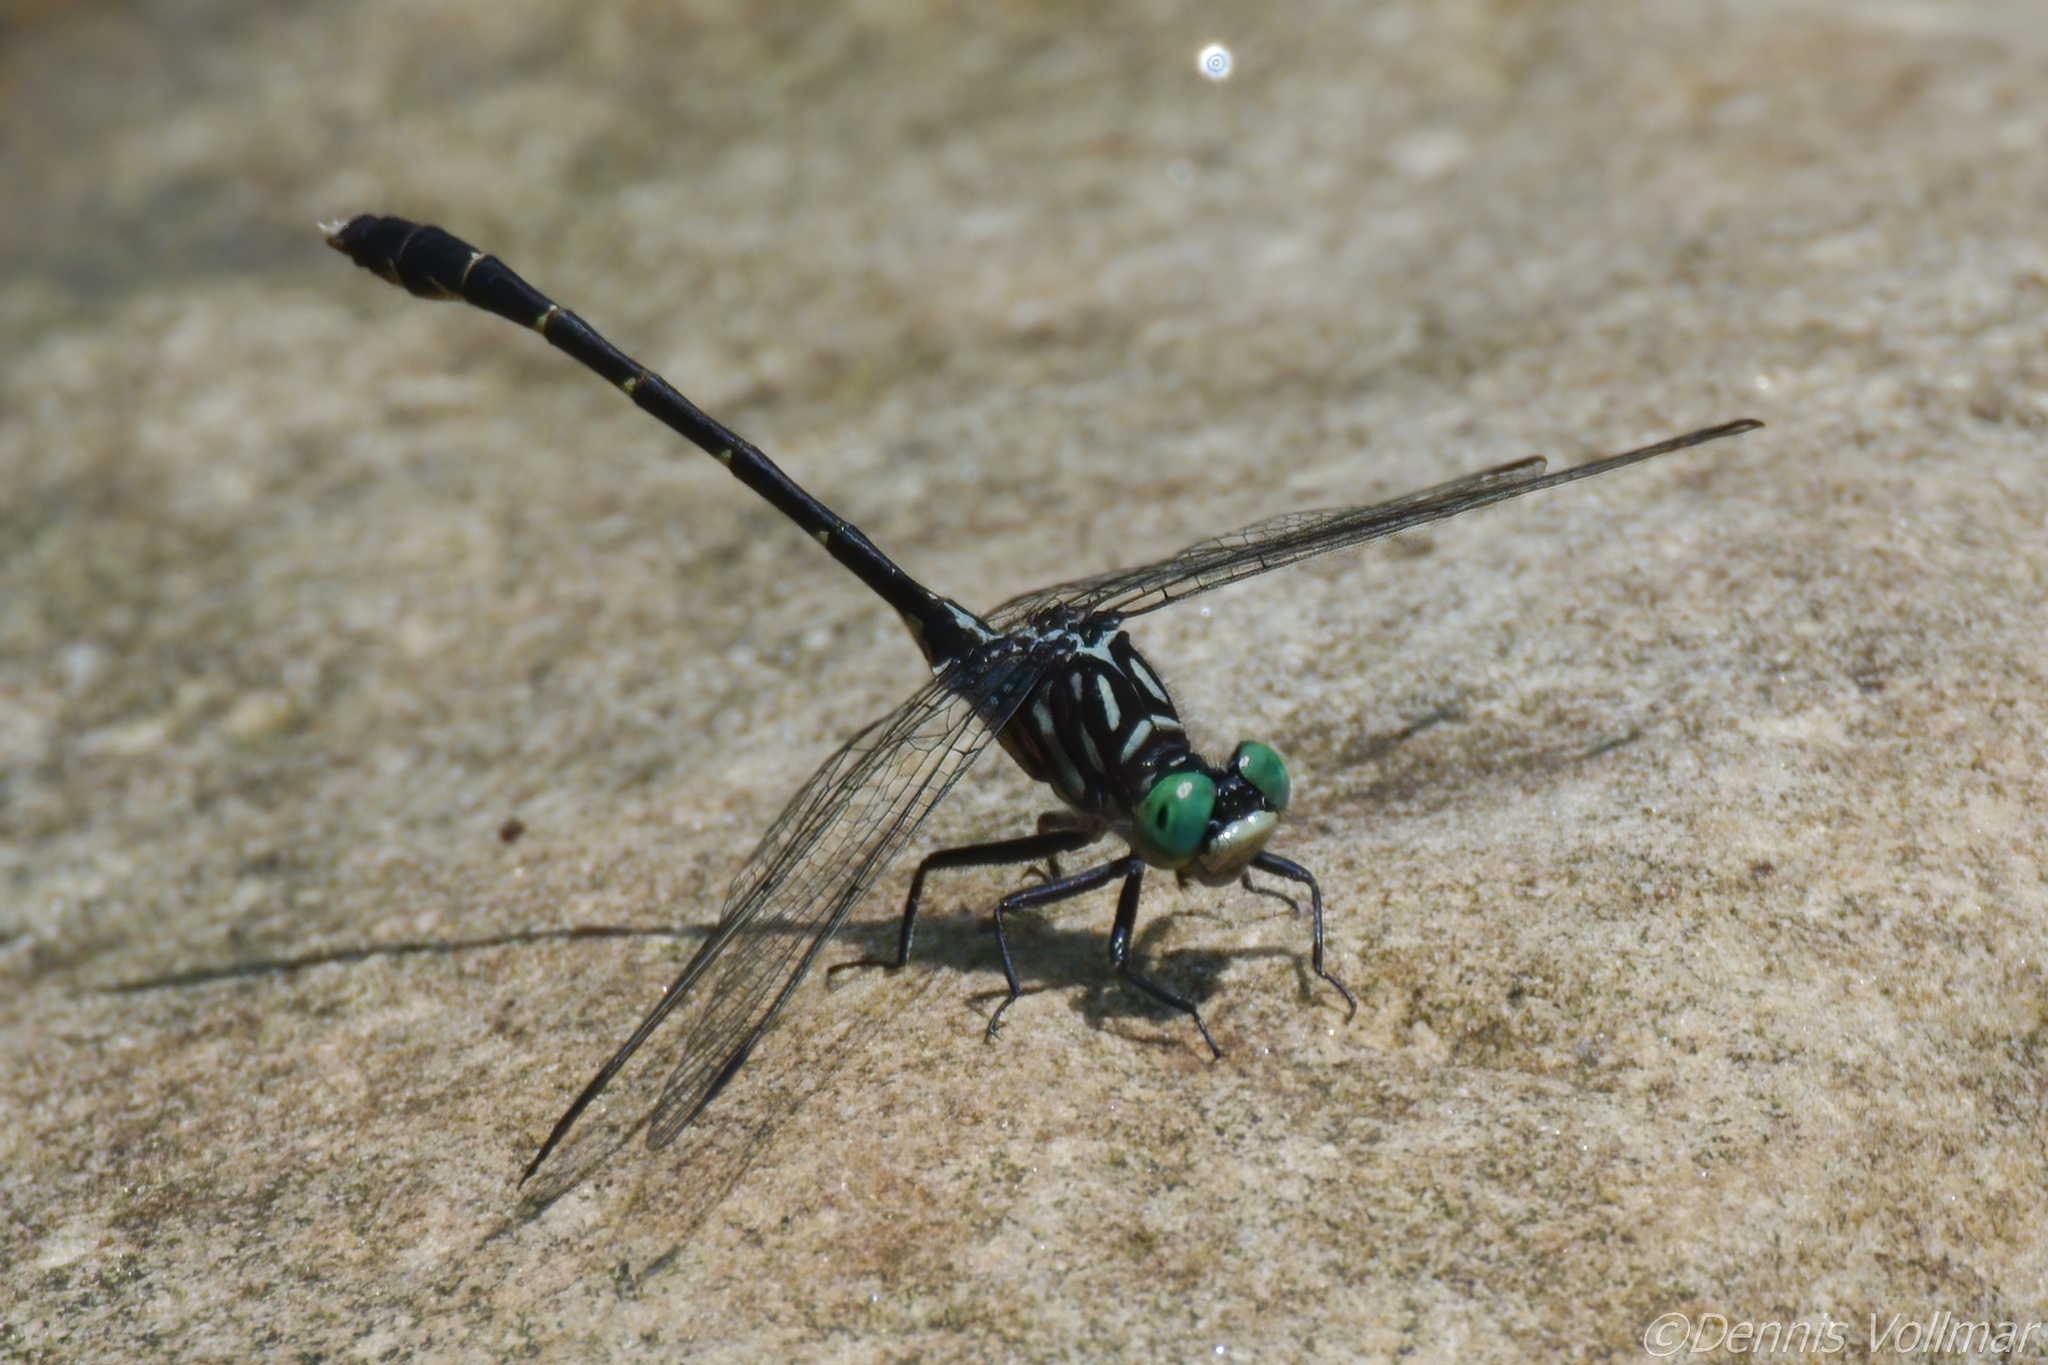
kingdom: Animalia
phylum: Arthropoda
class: Insecta
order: Odonata
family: Gomphidae
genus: Stylogomphus
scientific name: Stylogomphus albistylus
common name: Eastern least clubtail
